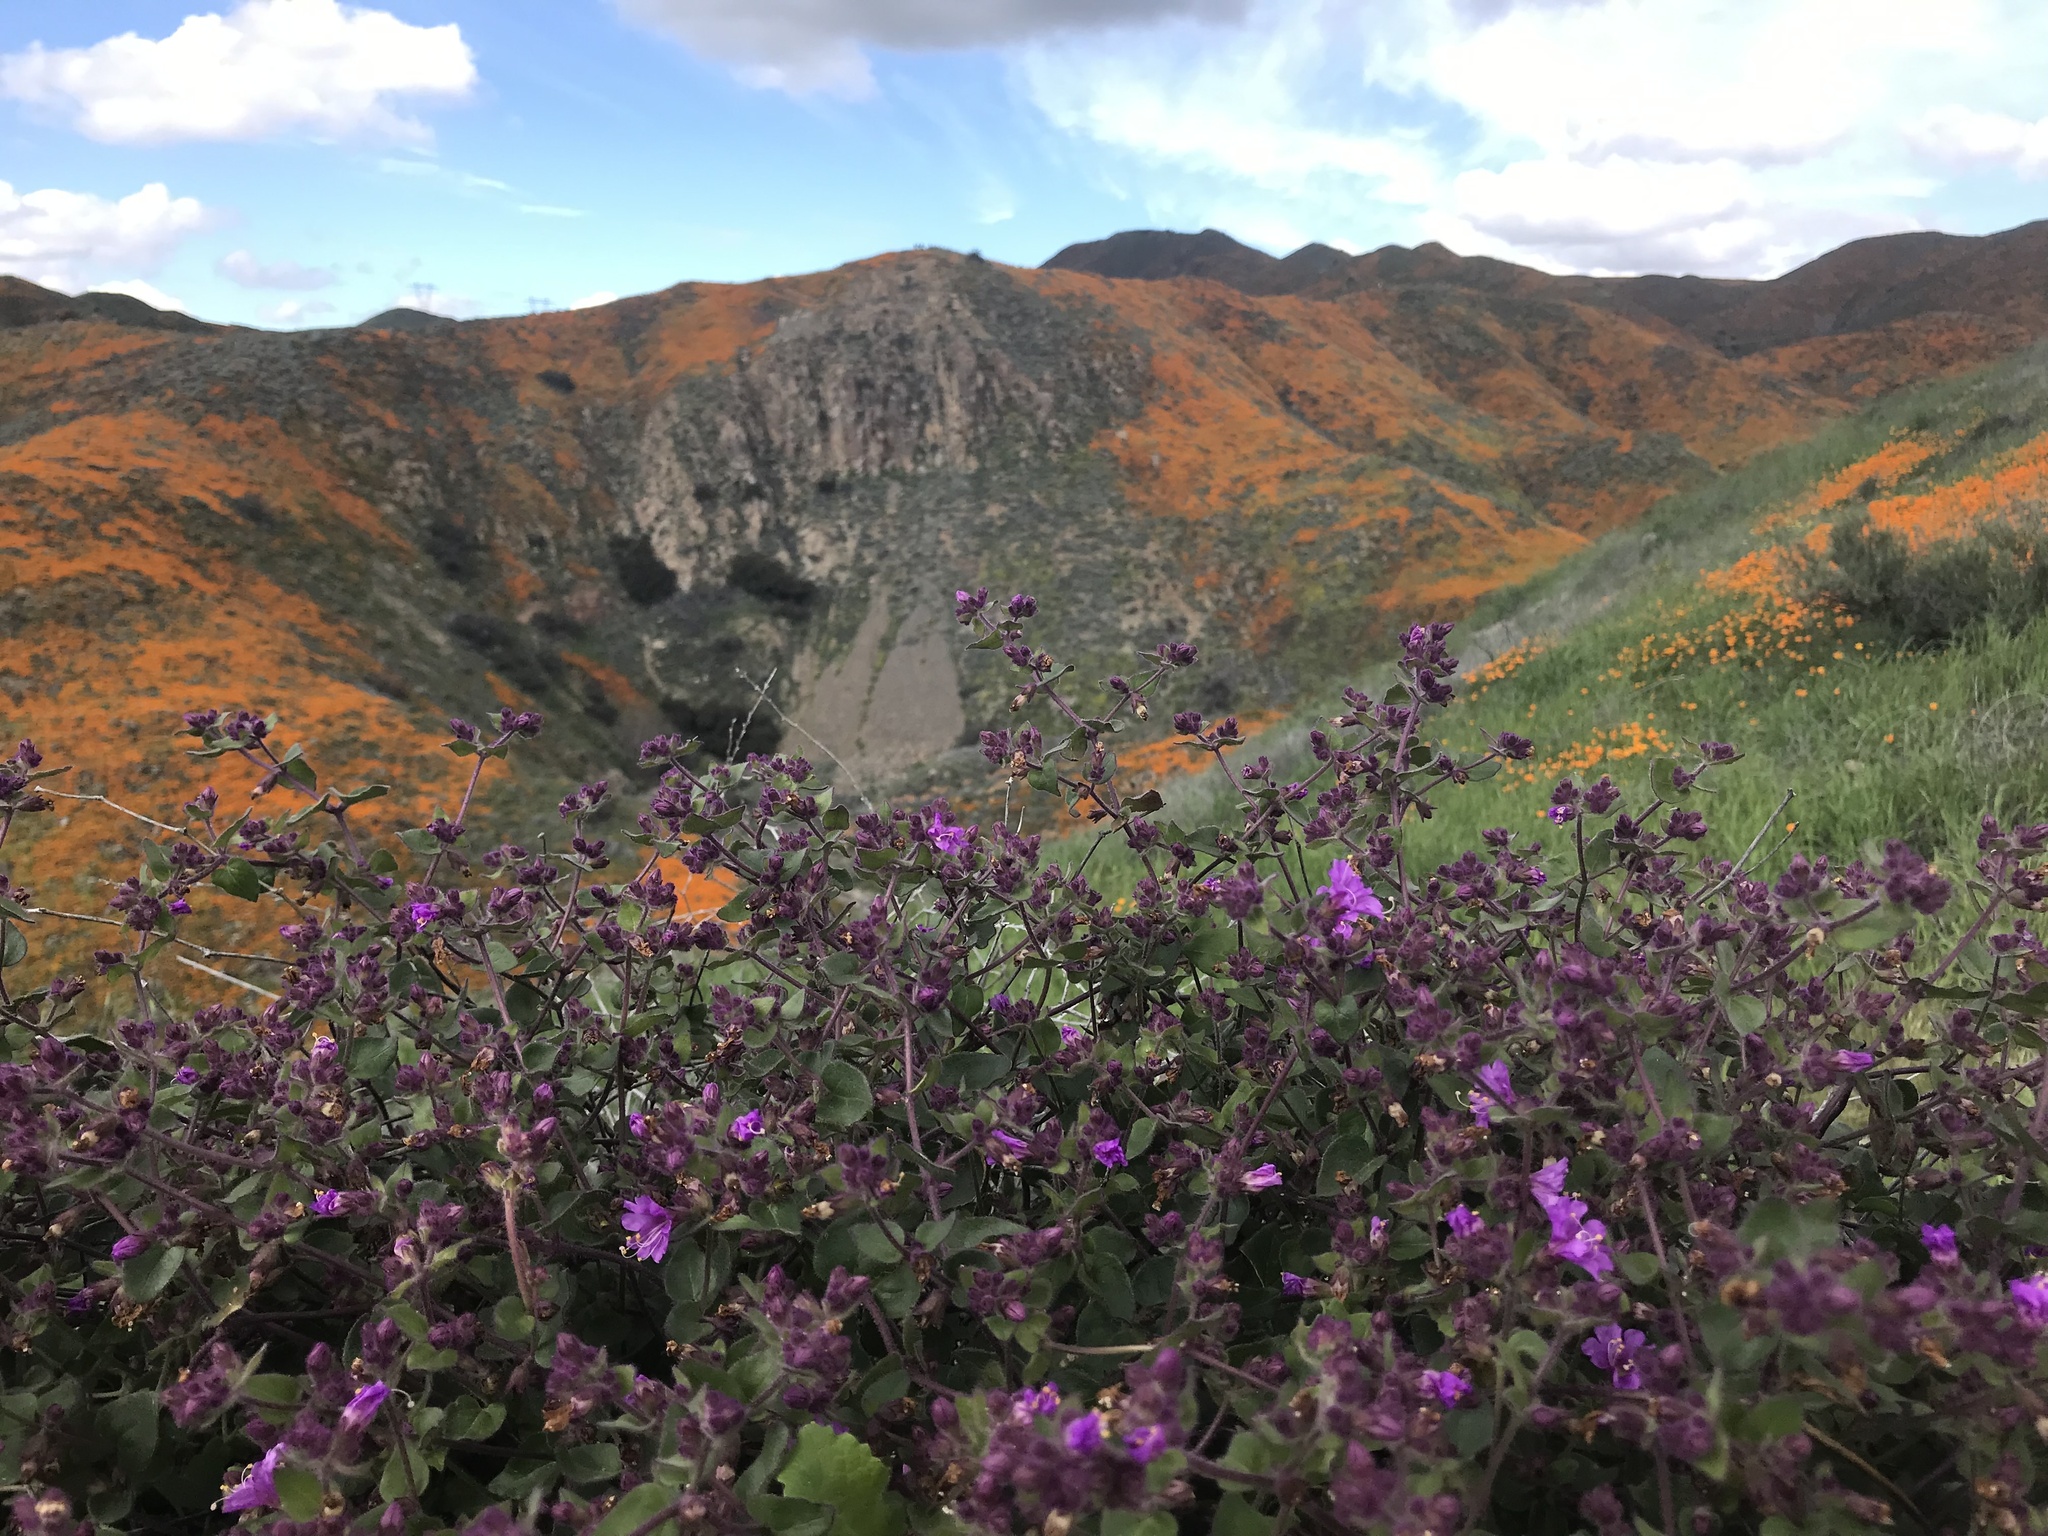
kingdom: Plantae
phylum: Tracheophyta
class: Magnoliopsida
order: Caryophyllales
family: Nyctaginaceae
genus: Mirabilis
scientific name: Mirabilis laevis
